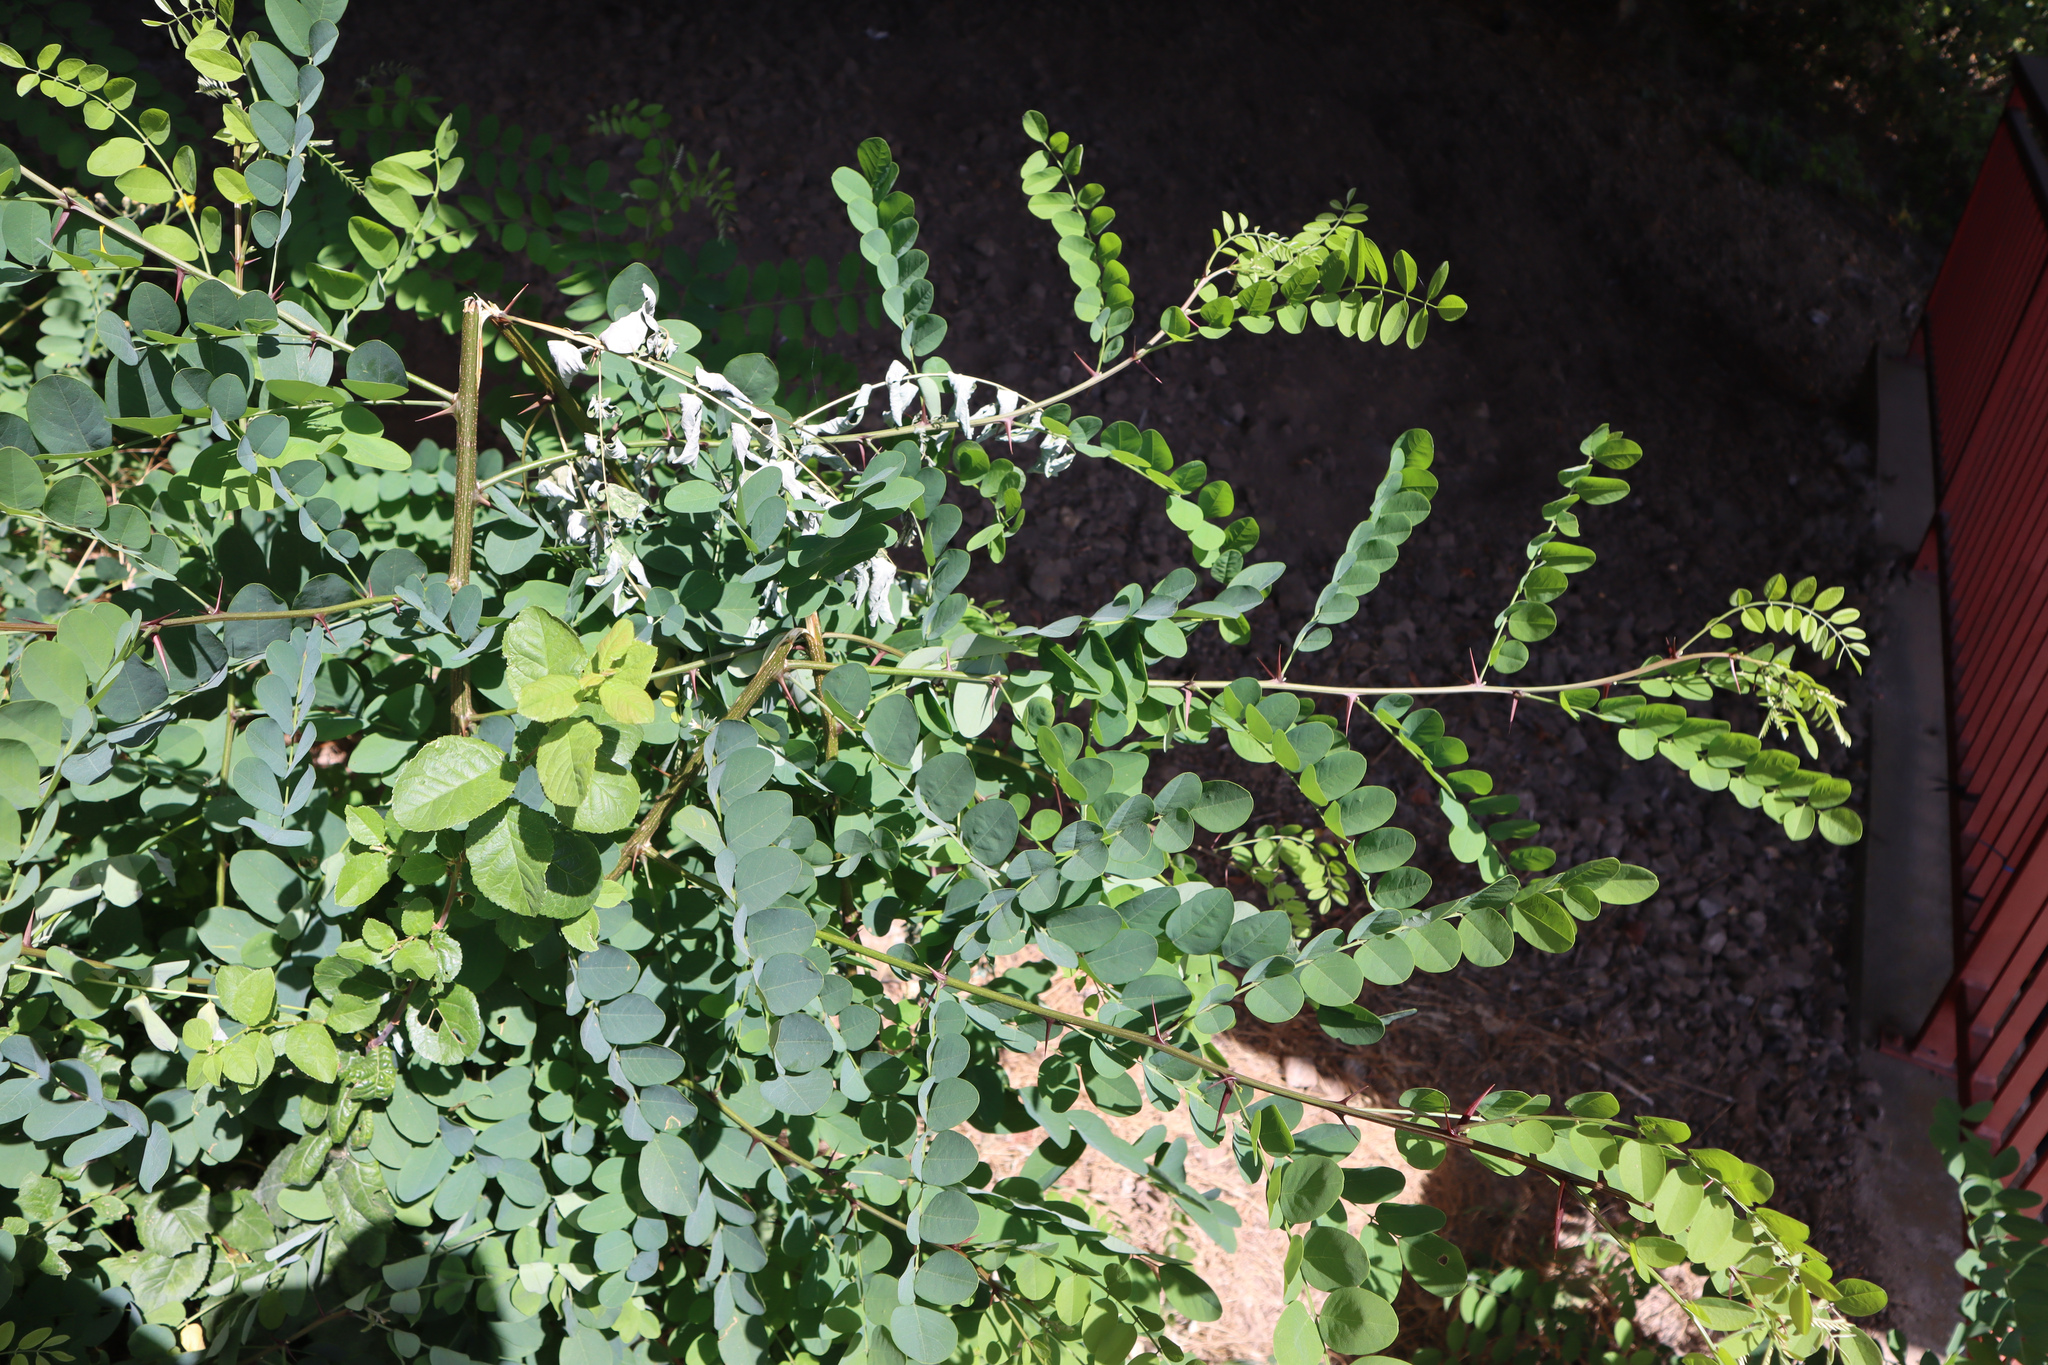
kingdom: Plantae
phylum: Tracheophyta
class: Magnoliopsida
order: Fabales
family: Fabaceae
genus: Robinia
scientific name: Robinia pseudoacacia
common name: Black locust
